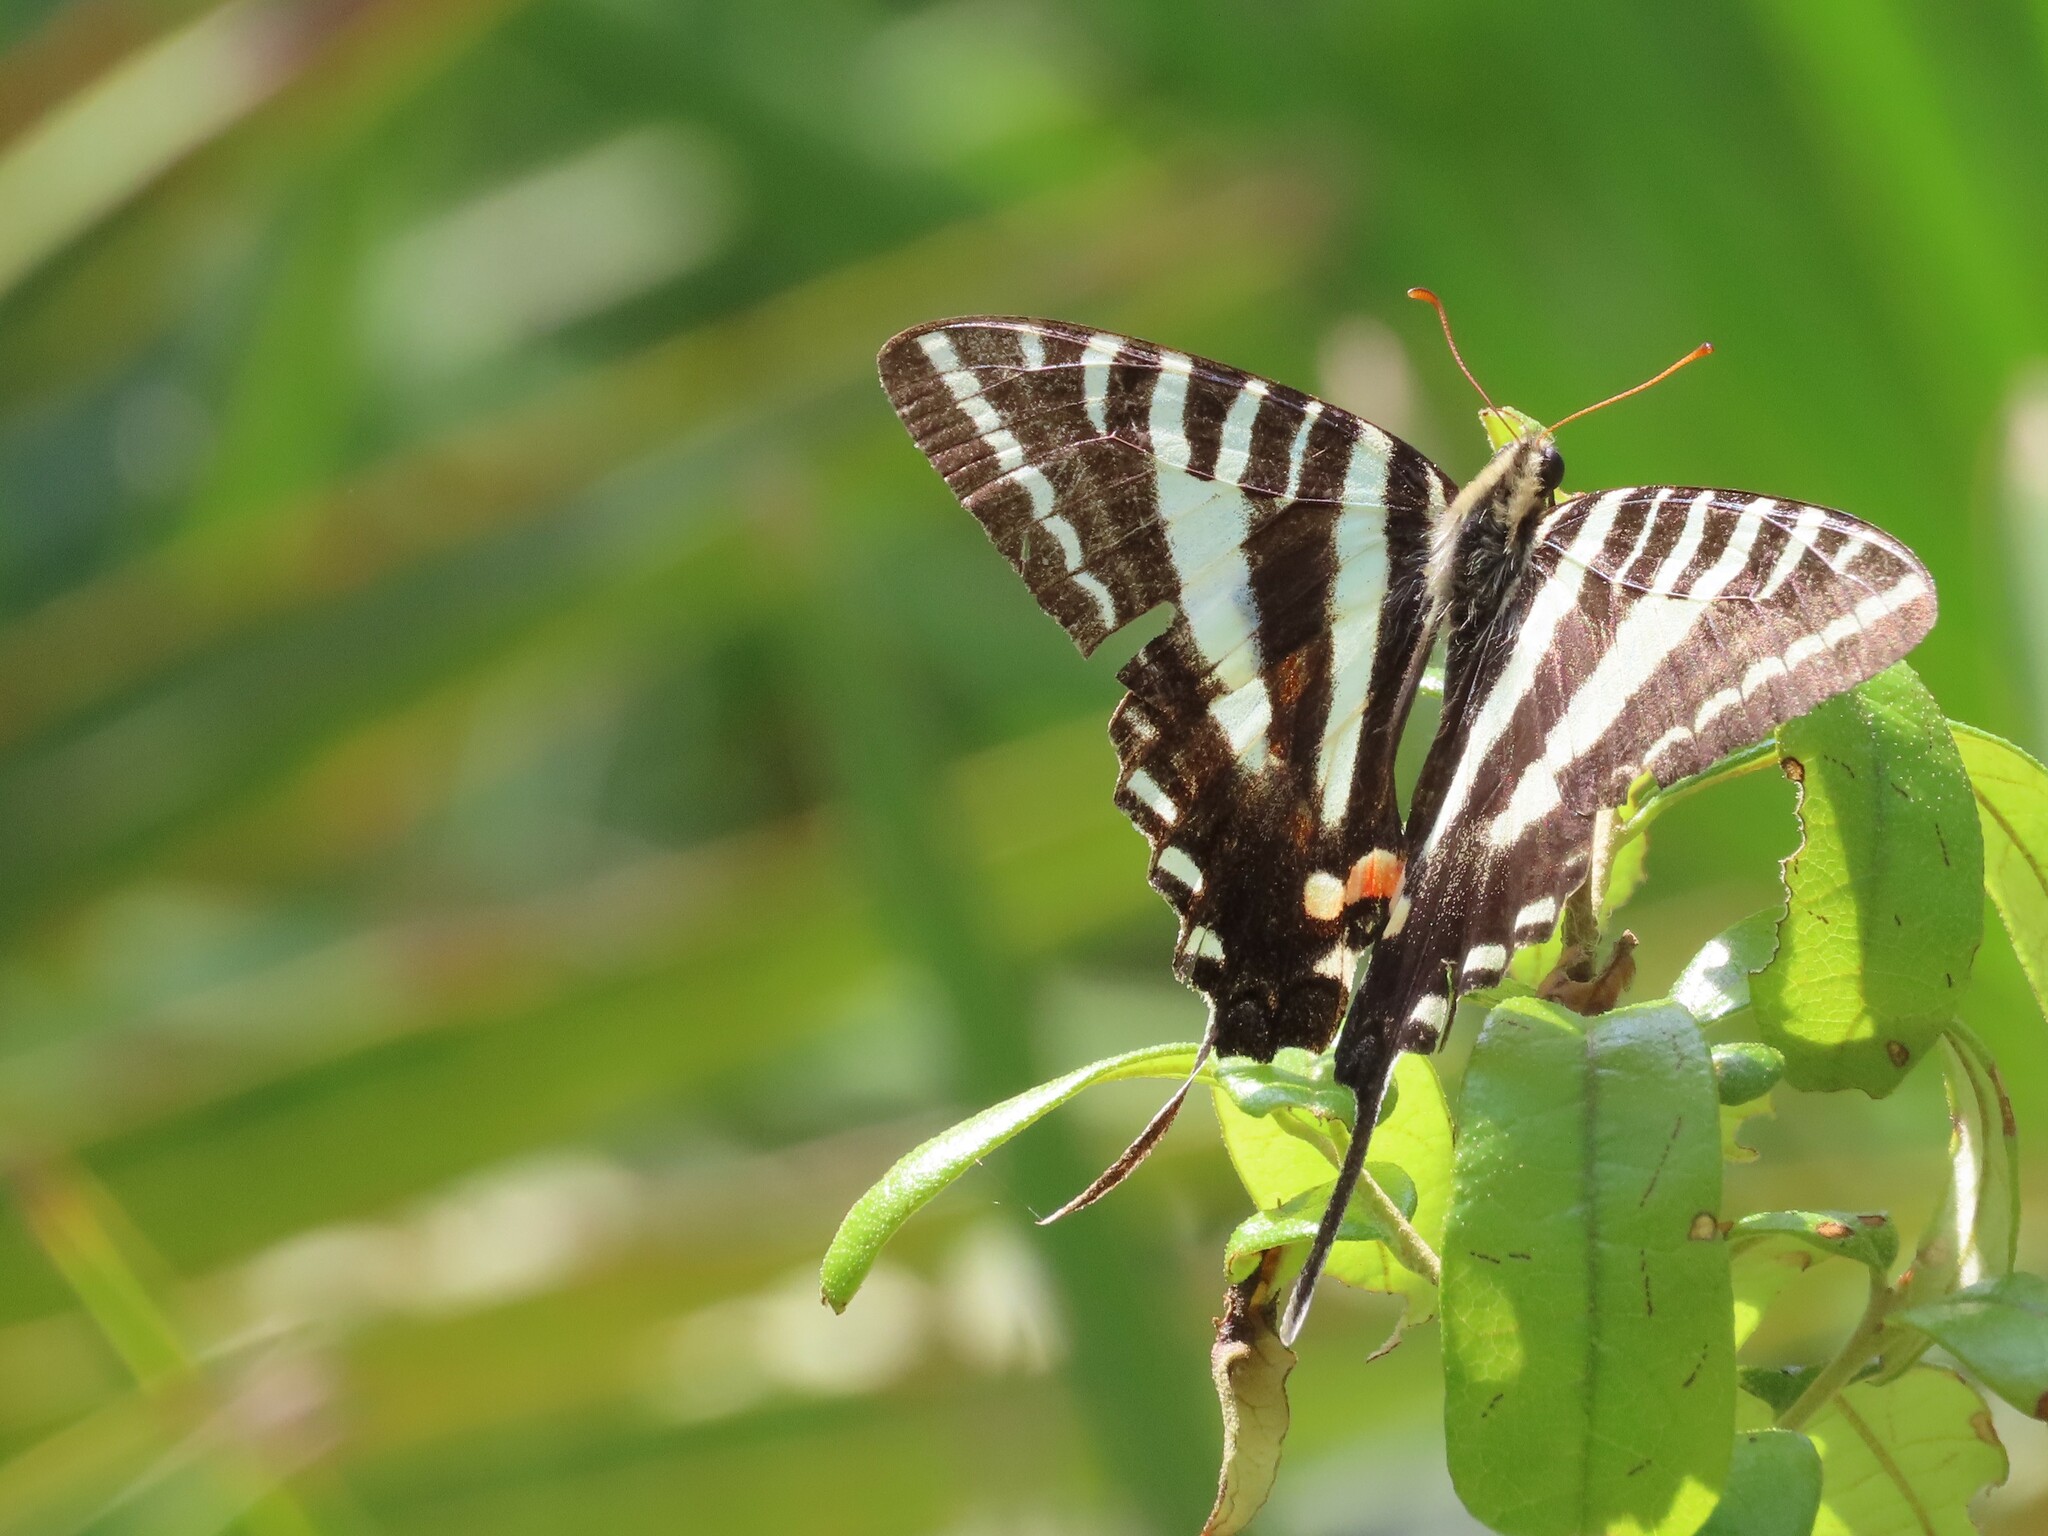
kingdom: Animalia
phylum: Arthropoda
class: Insecta
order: Lepidoptera
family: Papilionidae
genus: Protographium
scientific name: Protographium marcellus
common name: Zebra swallowtail
